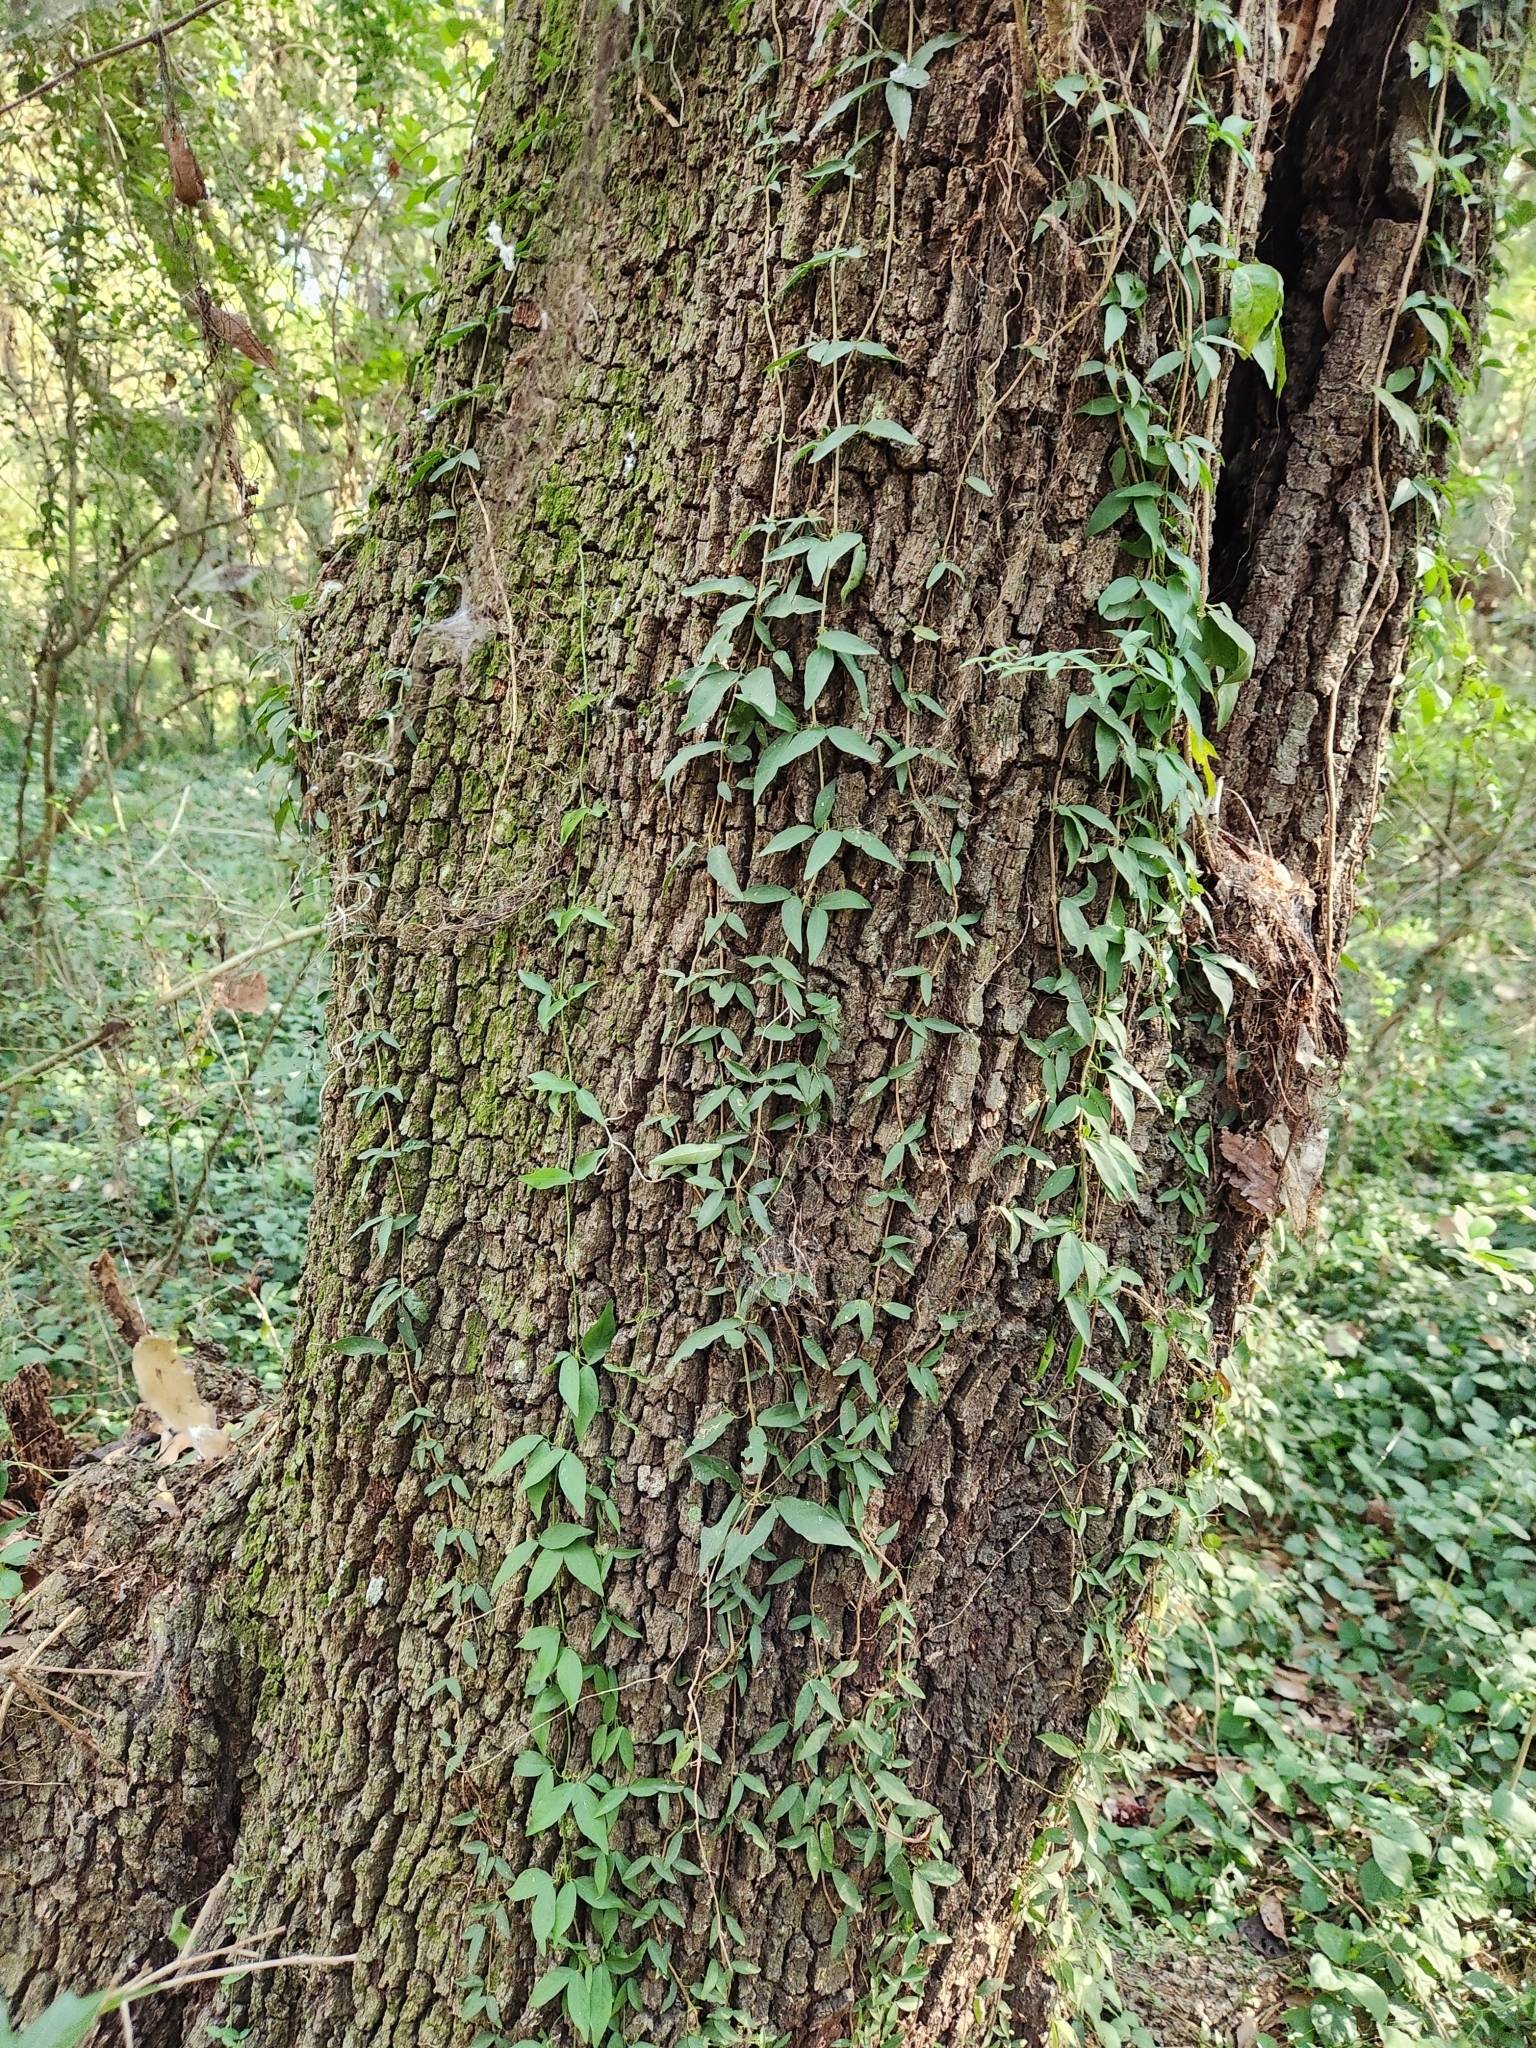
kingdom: Plantae
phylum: Tracheophyta
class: Magnoliopsida
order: Lamiales
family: Bignoniaceae
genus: Dolichandra
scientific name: Dolichandra unguis-cati
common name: Catclaw vine
